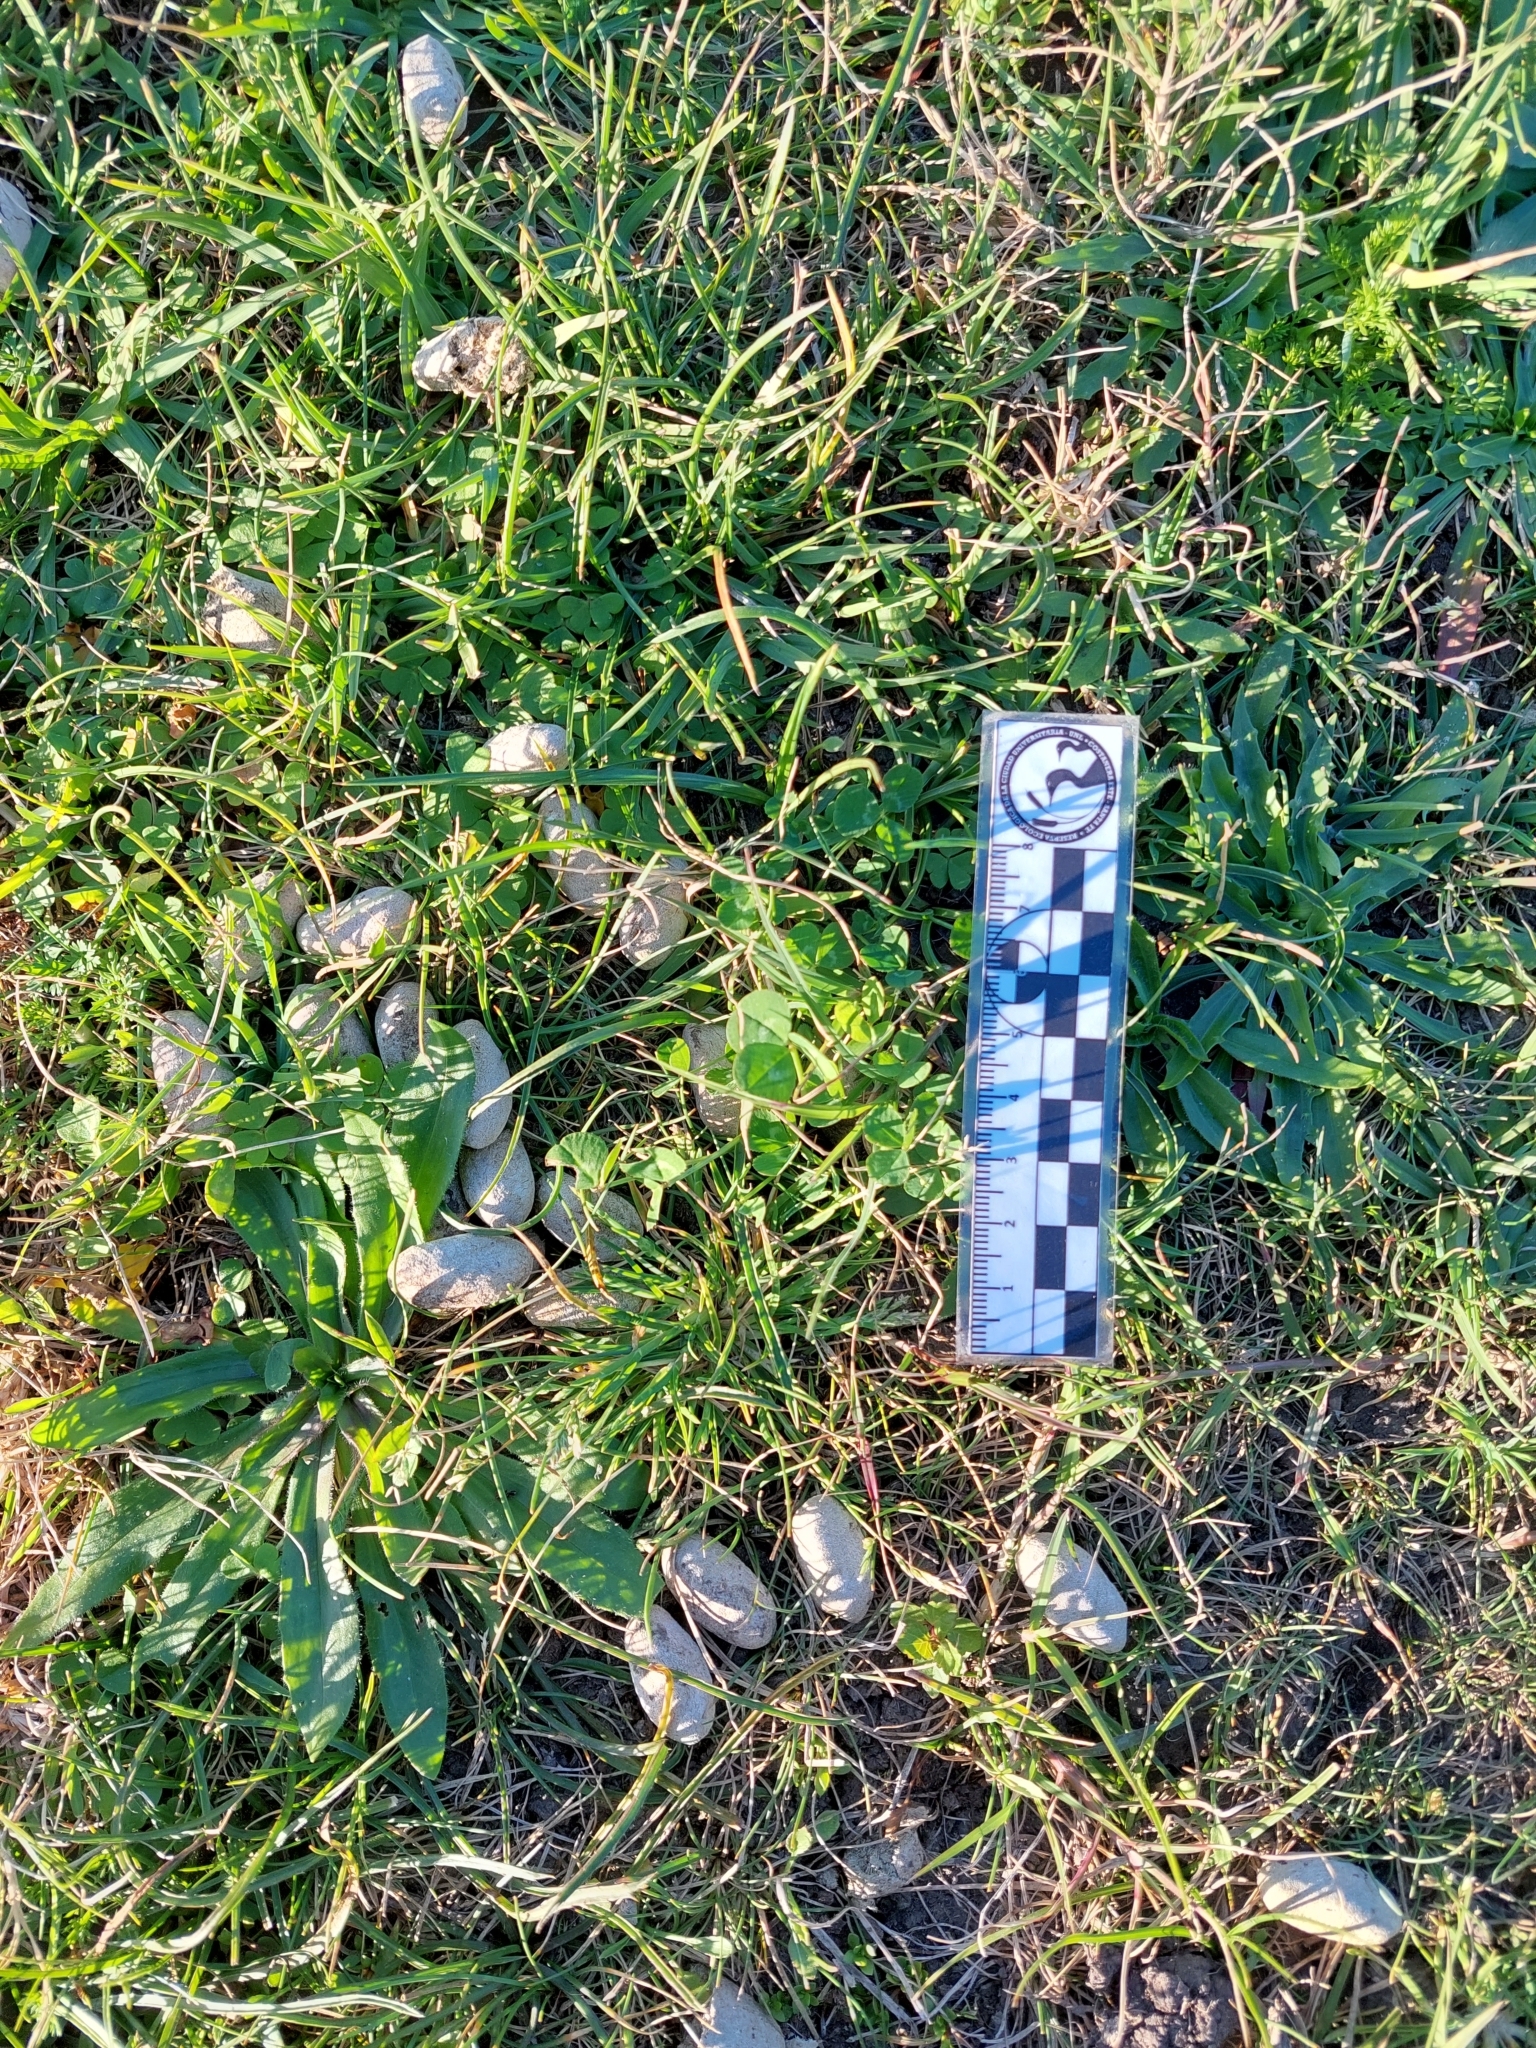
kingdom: Animalia
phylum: Chordata
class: Mammalia
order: Rodentia
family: Caviidae
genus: Hydrochoerus
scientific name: Hydrochoerus hydrochaeris
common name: Capybara
